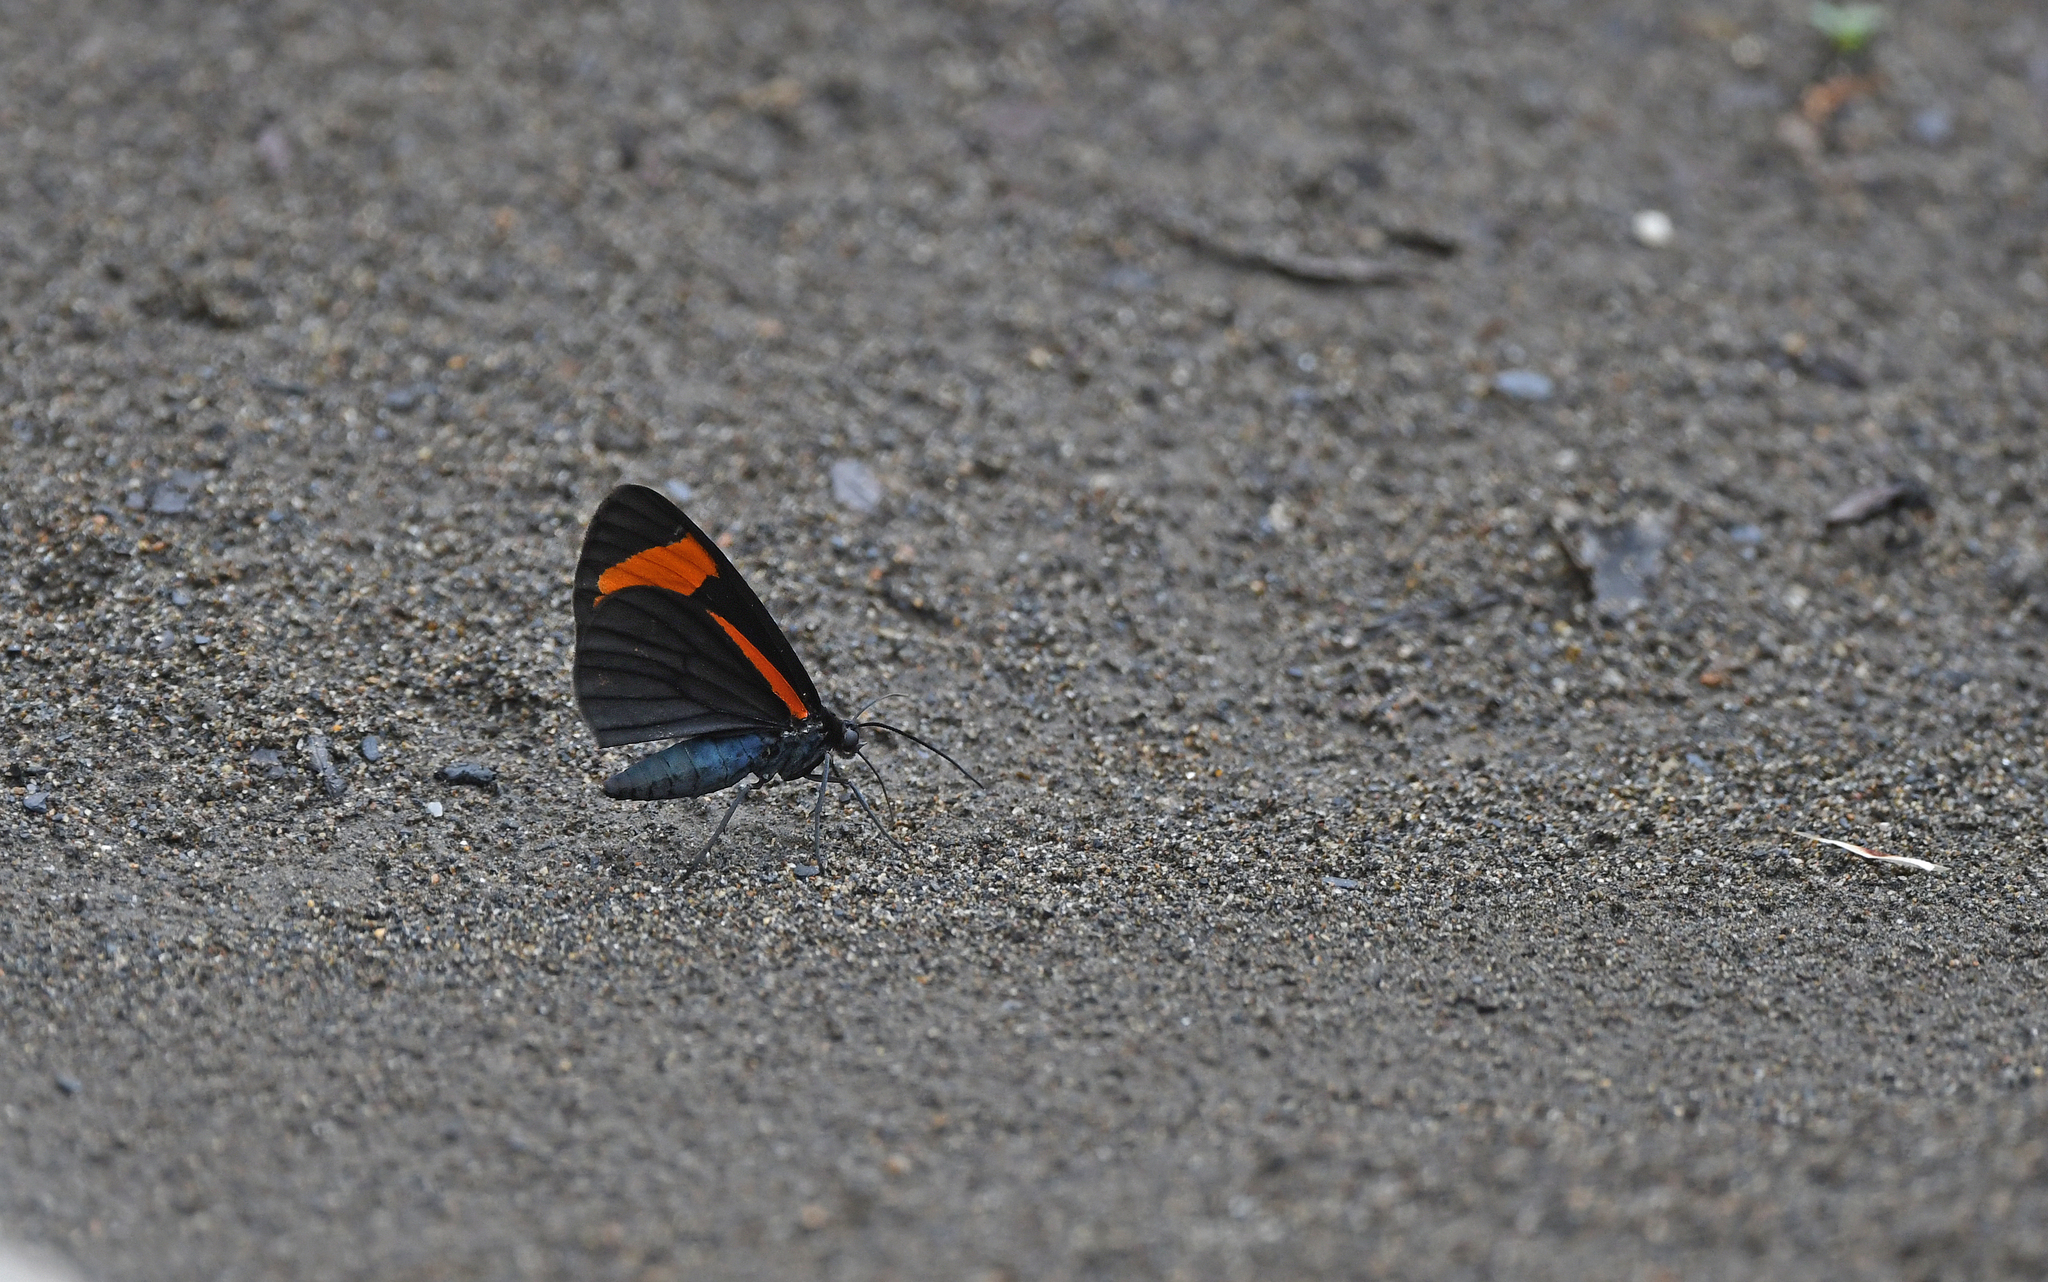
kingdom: Animalia
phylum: Arthropoda
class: Insecta
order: Lepidoptera
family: Geometridae
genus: Siosta
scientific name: Siosta bifasciata
